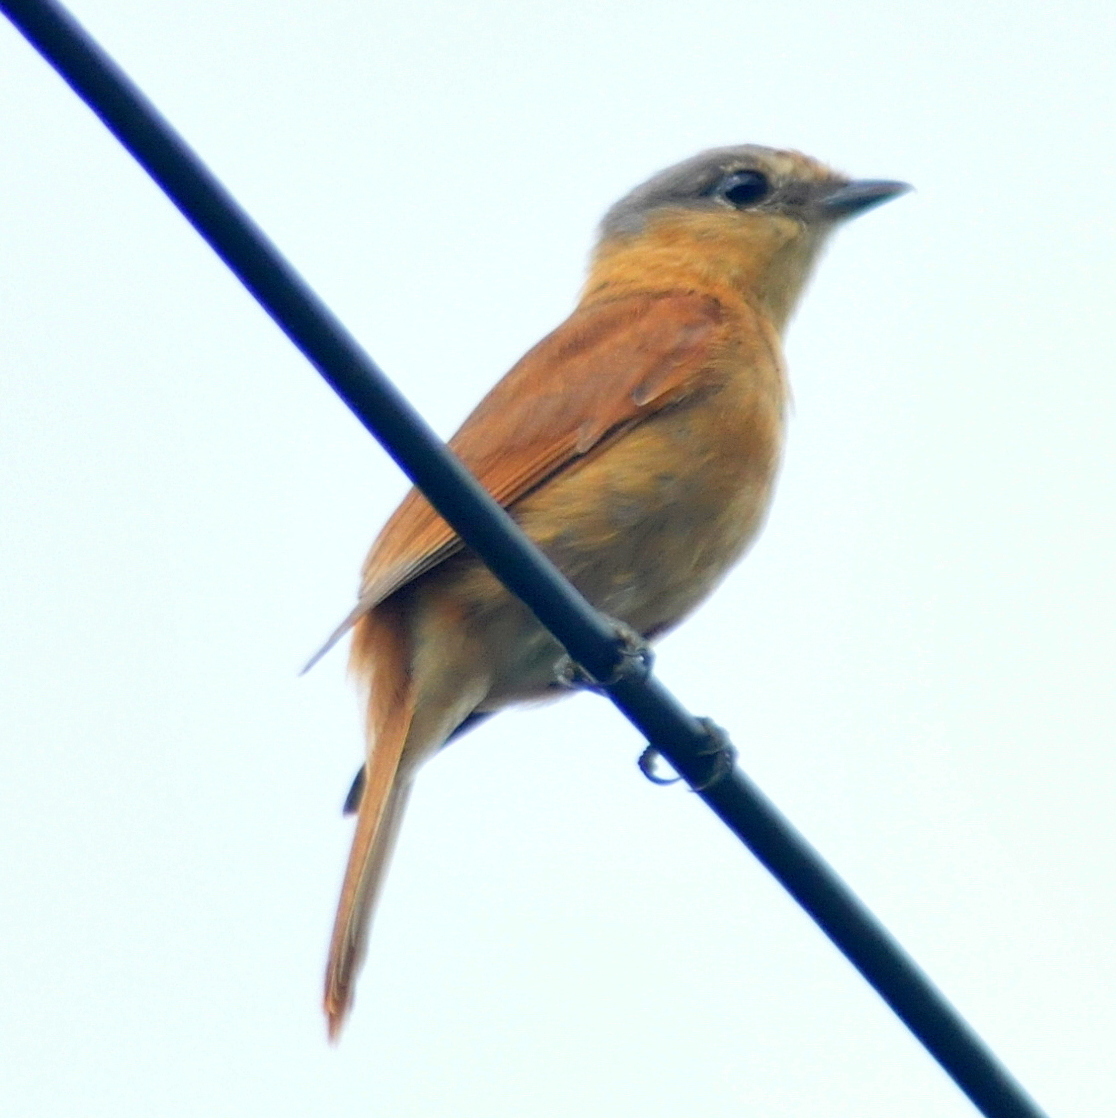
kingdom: Animalia
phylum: Chordata
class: Aves
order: Passeriformes
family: Cotingidae
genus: Pachyramphus
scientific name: Pachyramphus castaneus
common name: Chestnut-crowned becard
